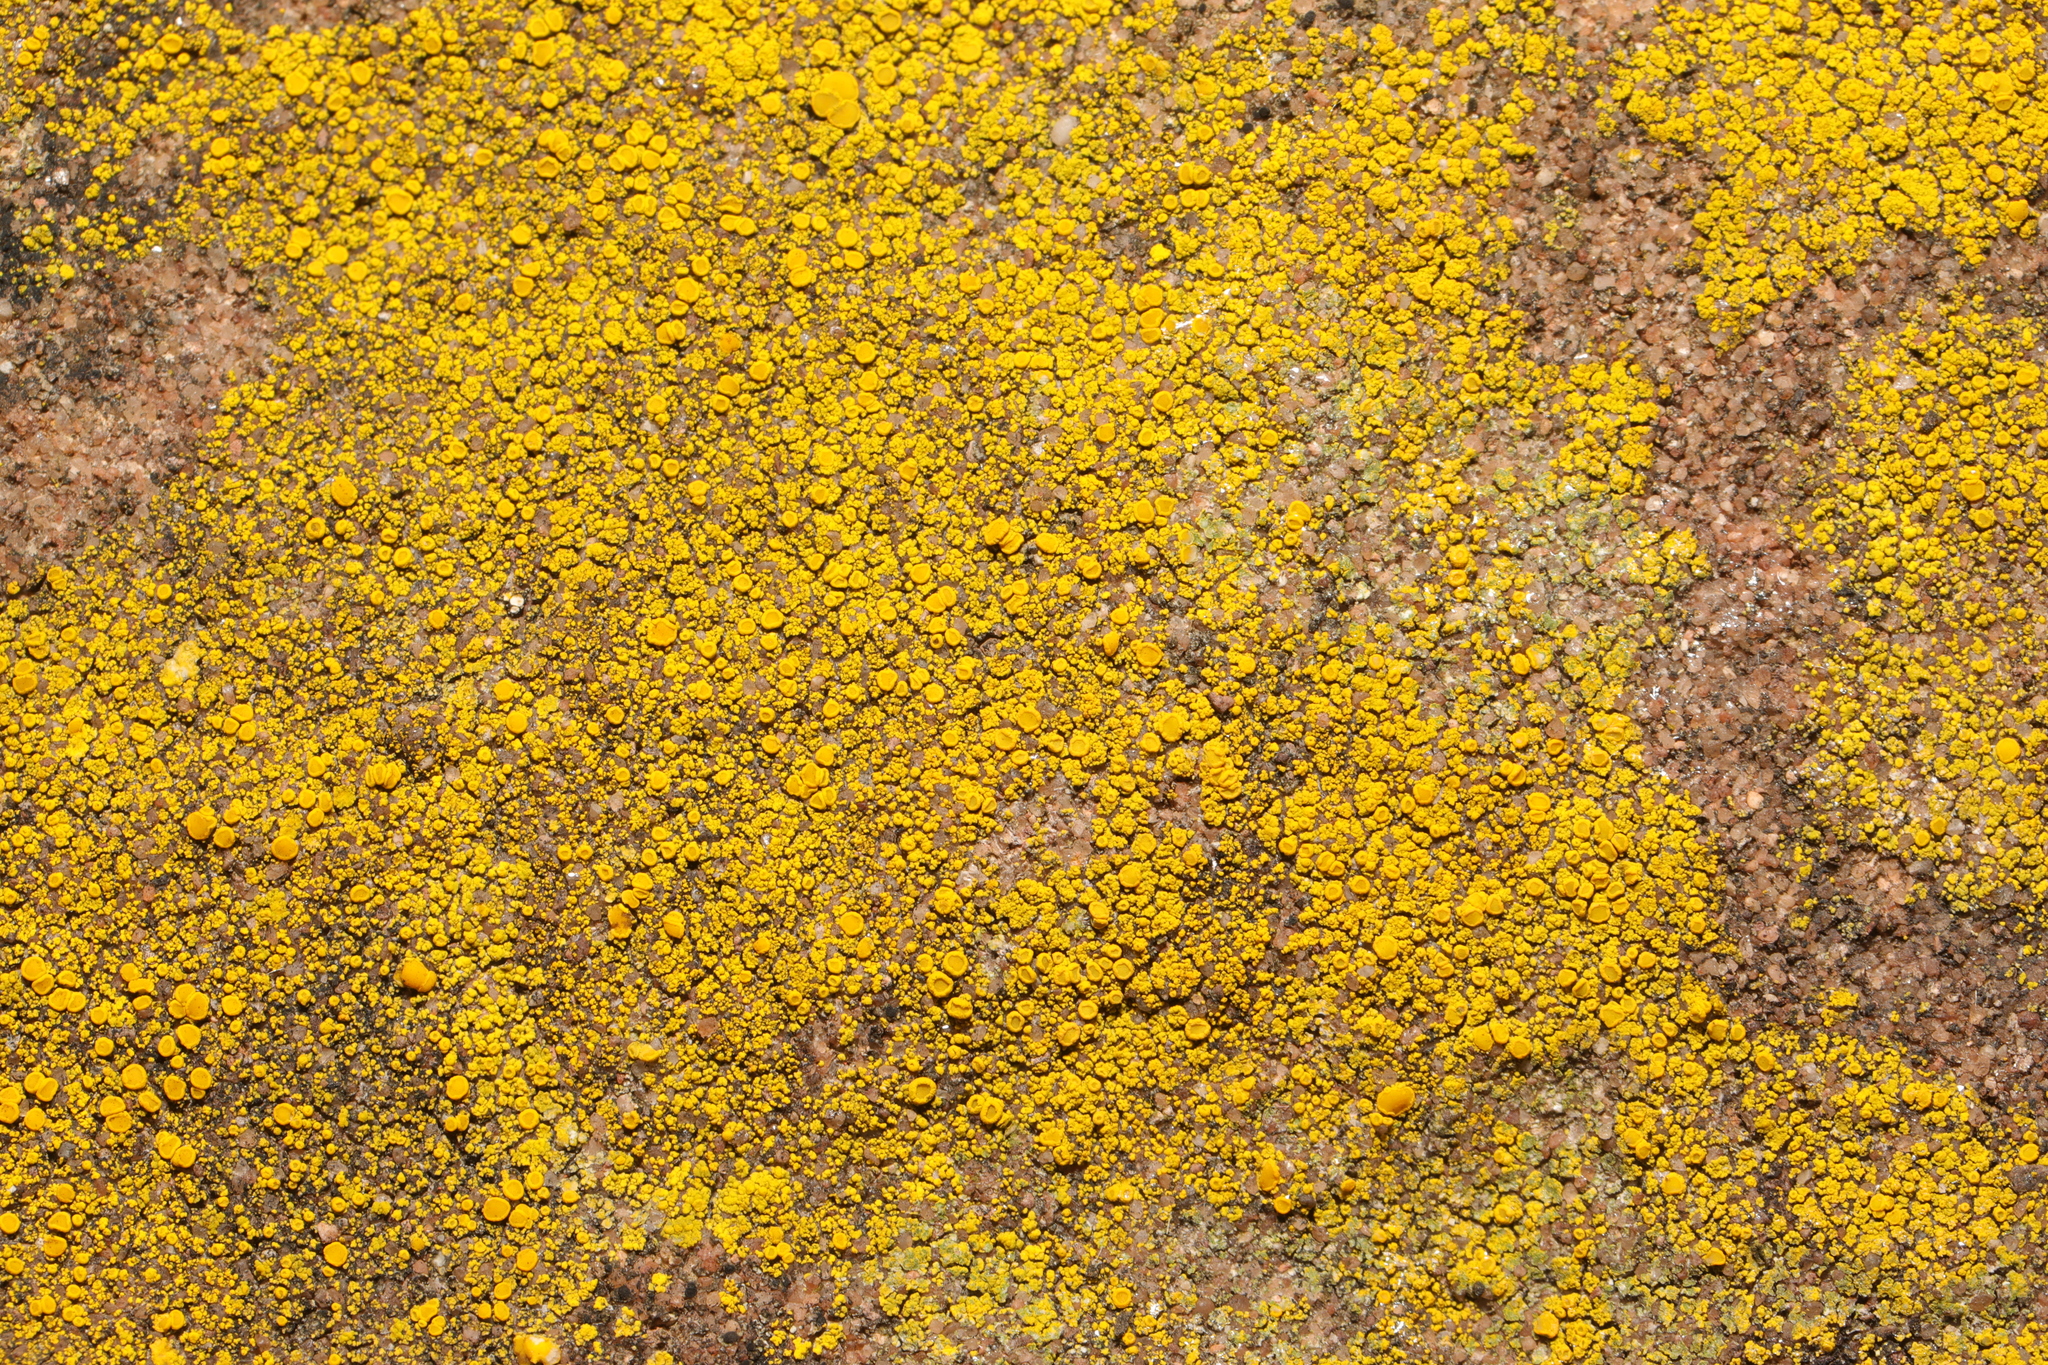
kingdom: Fungi
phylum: Ascomycota
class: Candelariomycetes
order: Candelariales
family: Candelariaceae
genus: Candelariella
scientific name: Candelariella vitellina
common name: Common goldspeck
